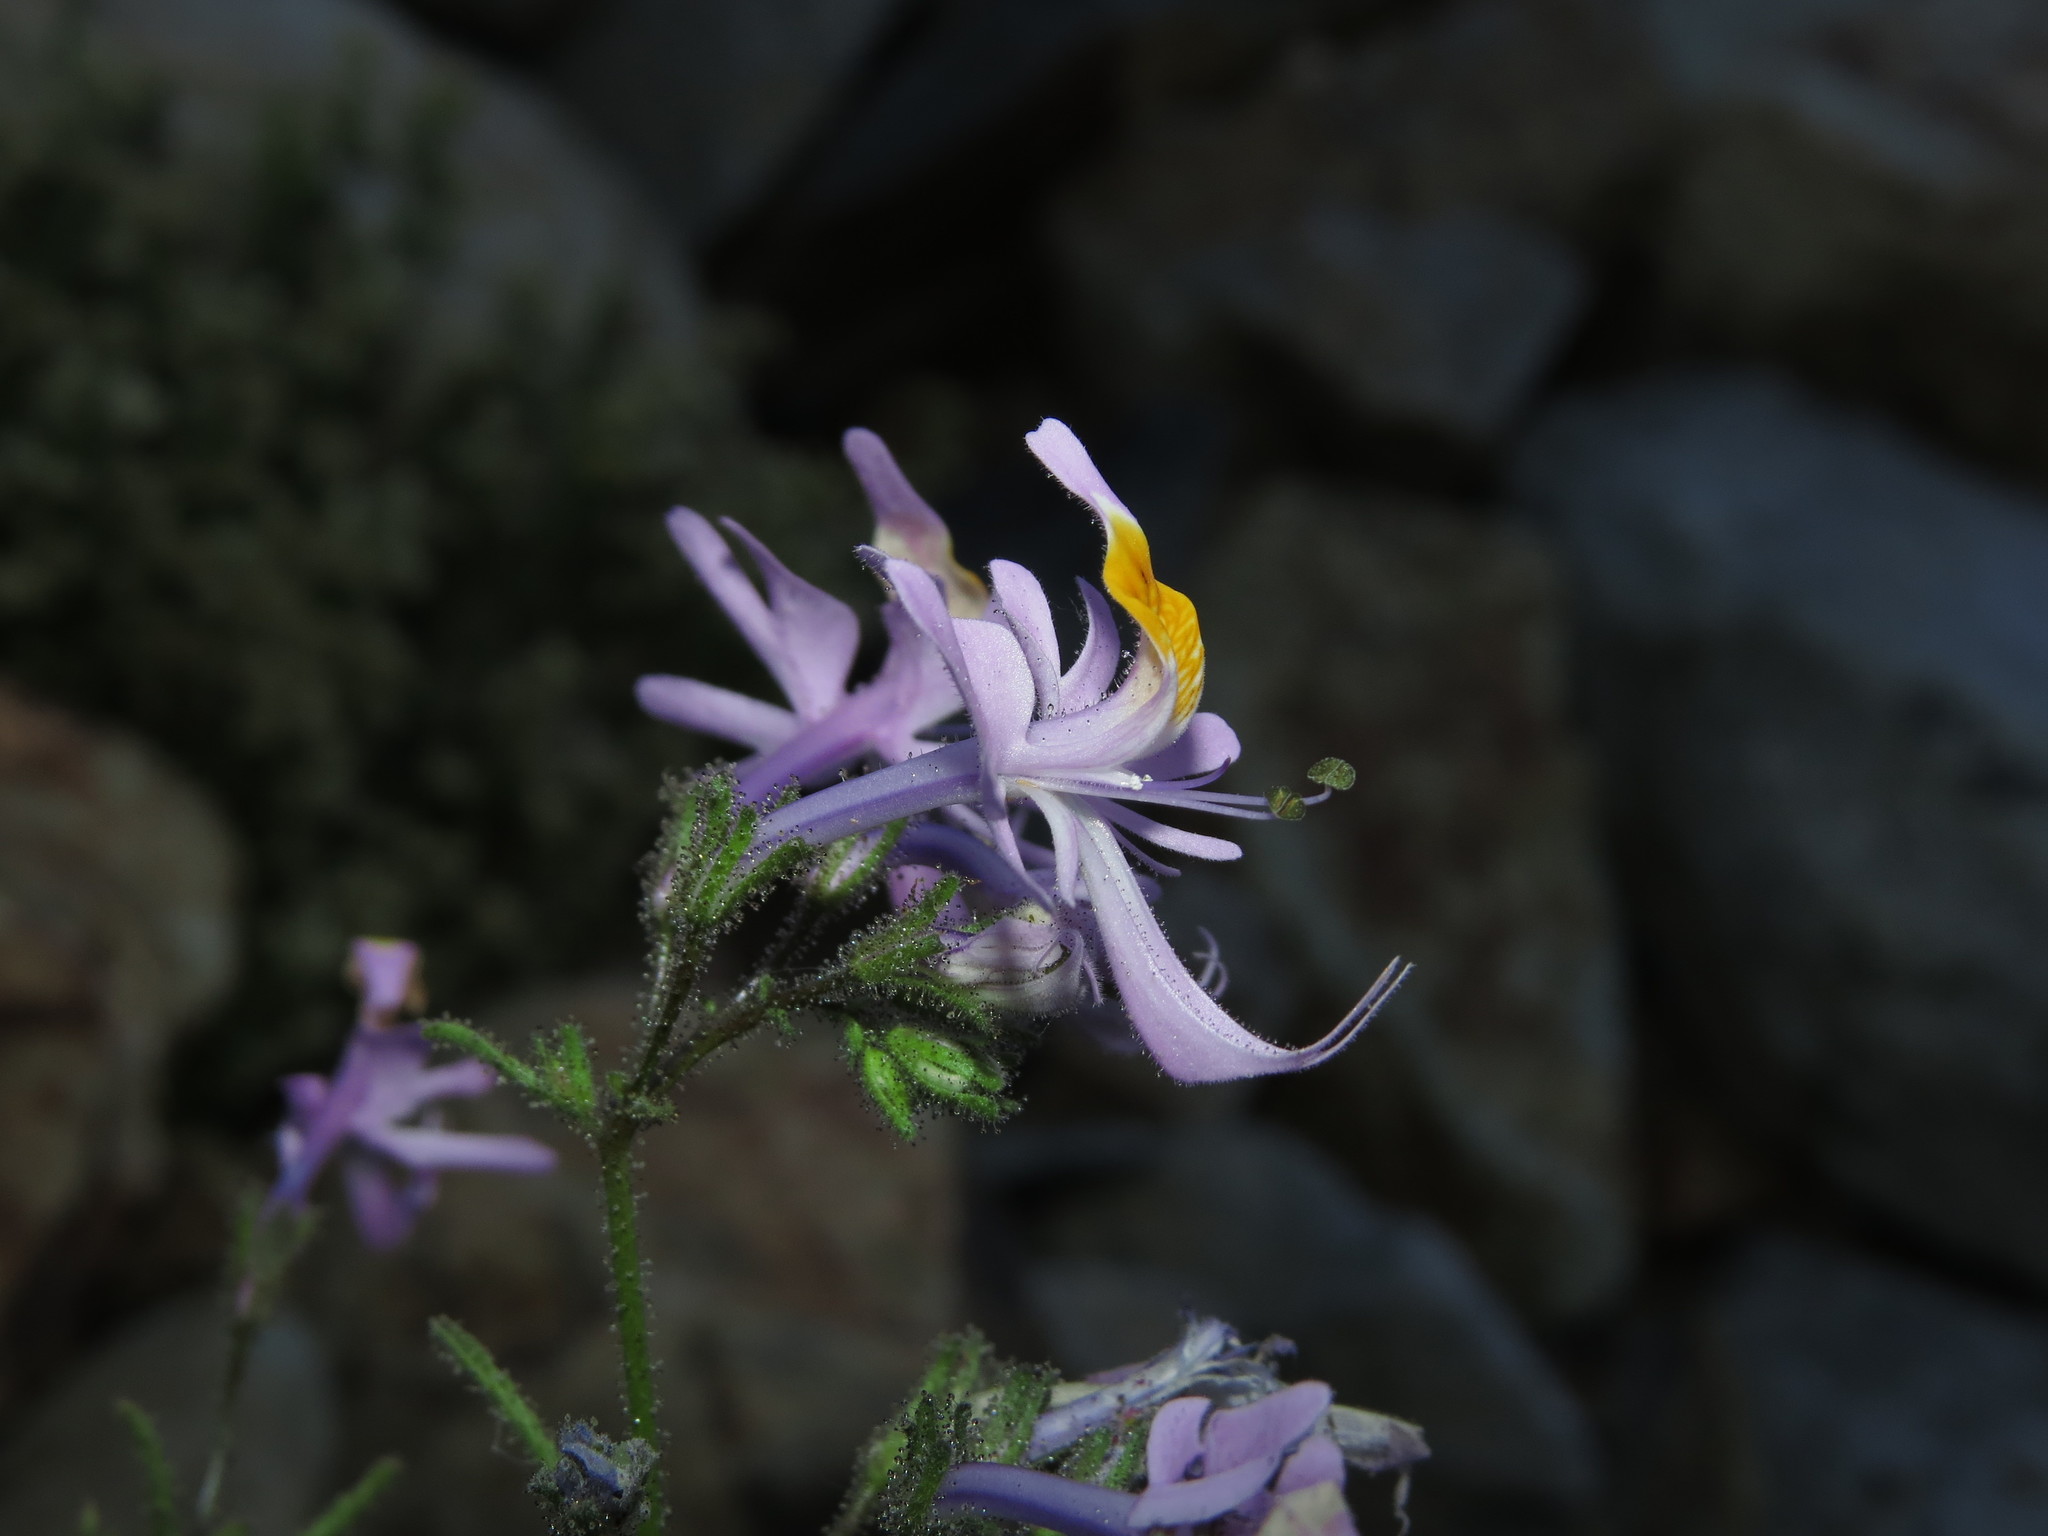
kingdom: Plantae
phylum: Tracheophyta
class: Magnoliopsida
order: Solanales
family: Solanaceae
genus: Schizanthus
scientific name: Schizanthus hookeri
